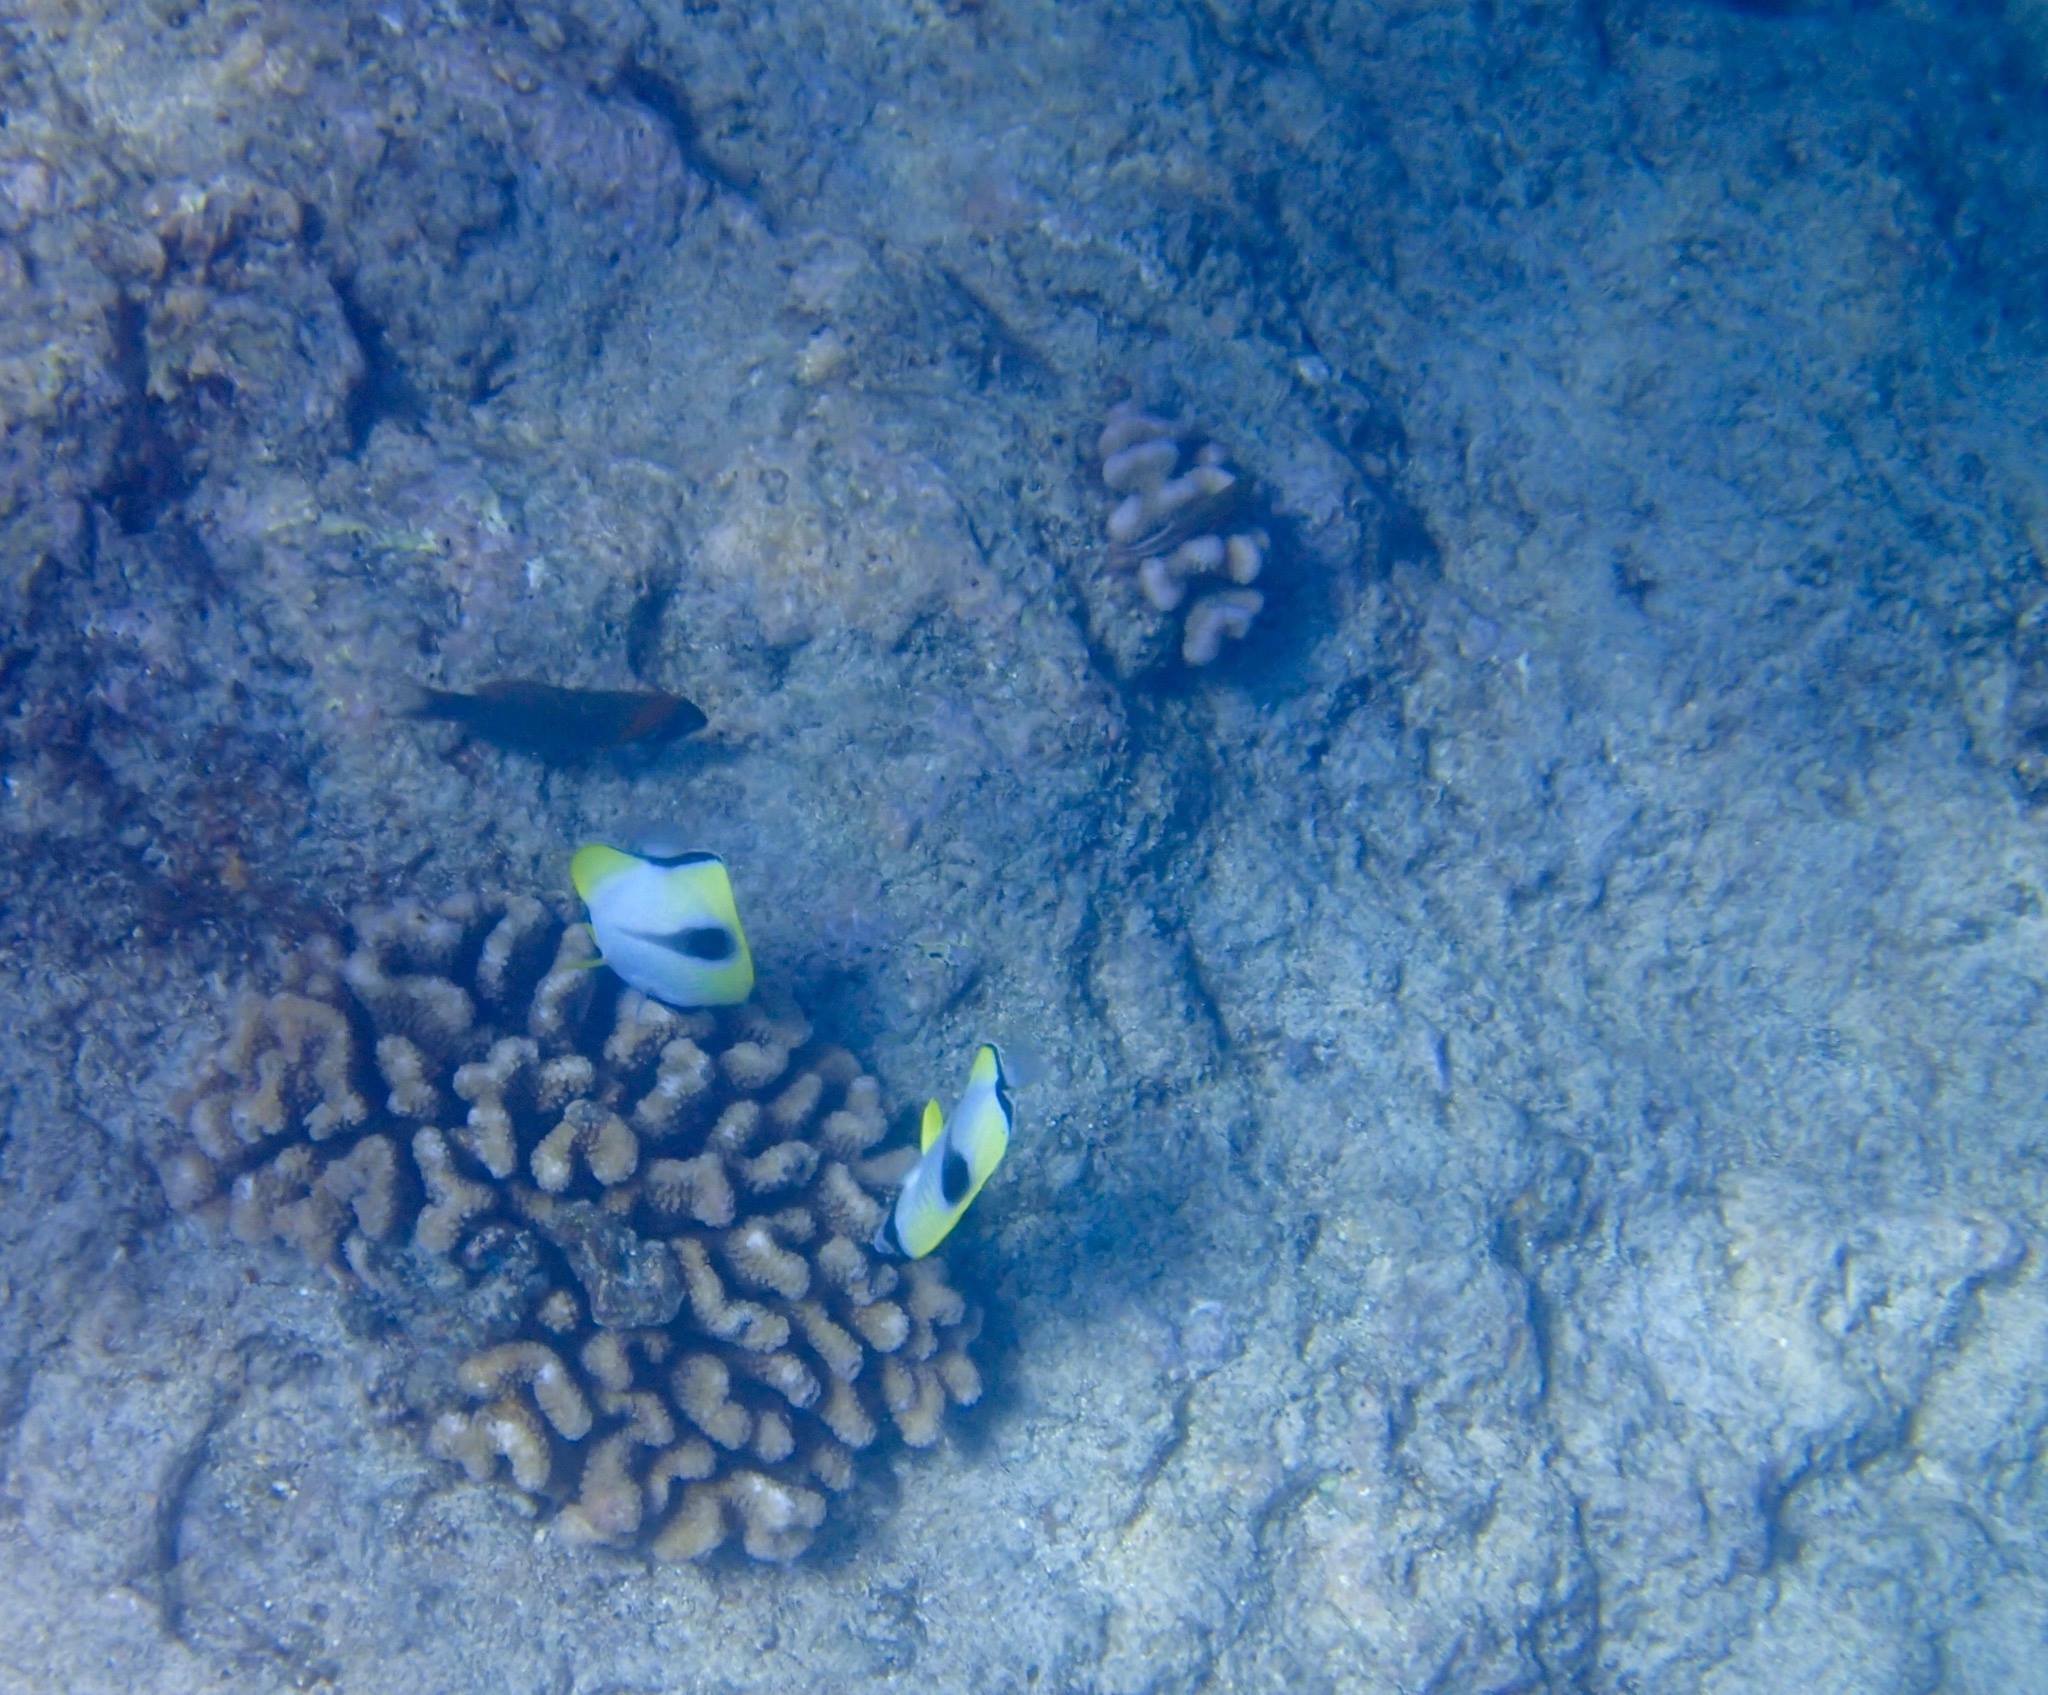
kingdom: Animalia
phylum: Chordata
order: Perciformes
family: Chaetodontidae
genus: Chaetodon
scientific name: Chaetodon unimaculatus
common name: Teardrop butterflyfish
